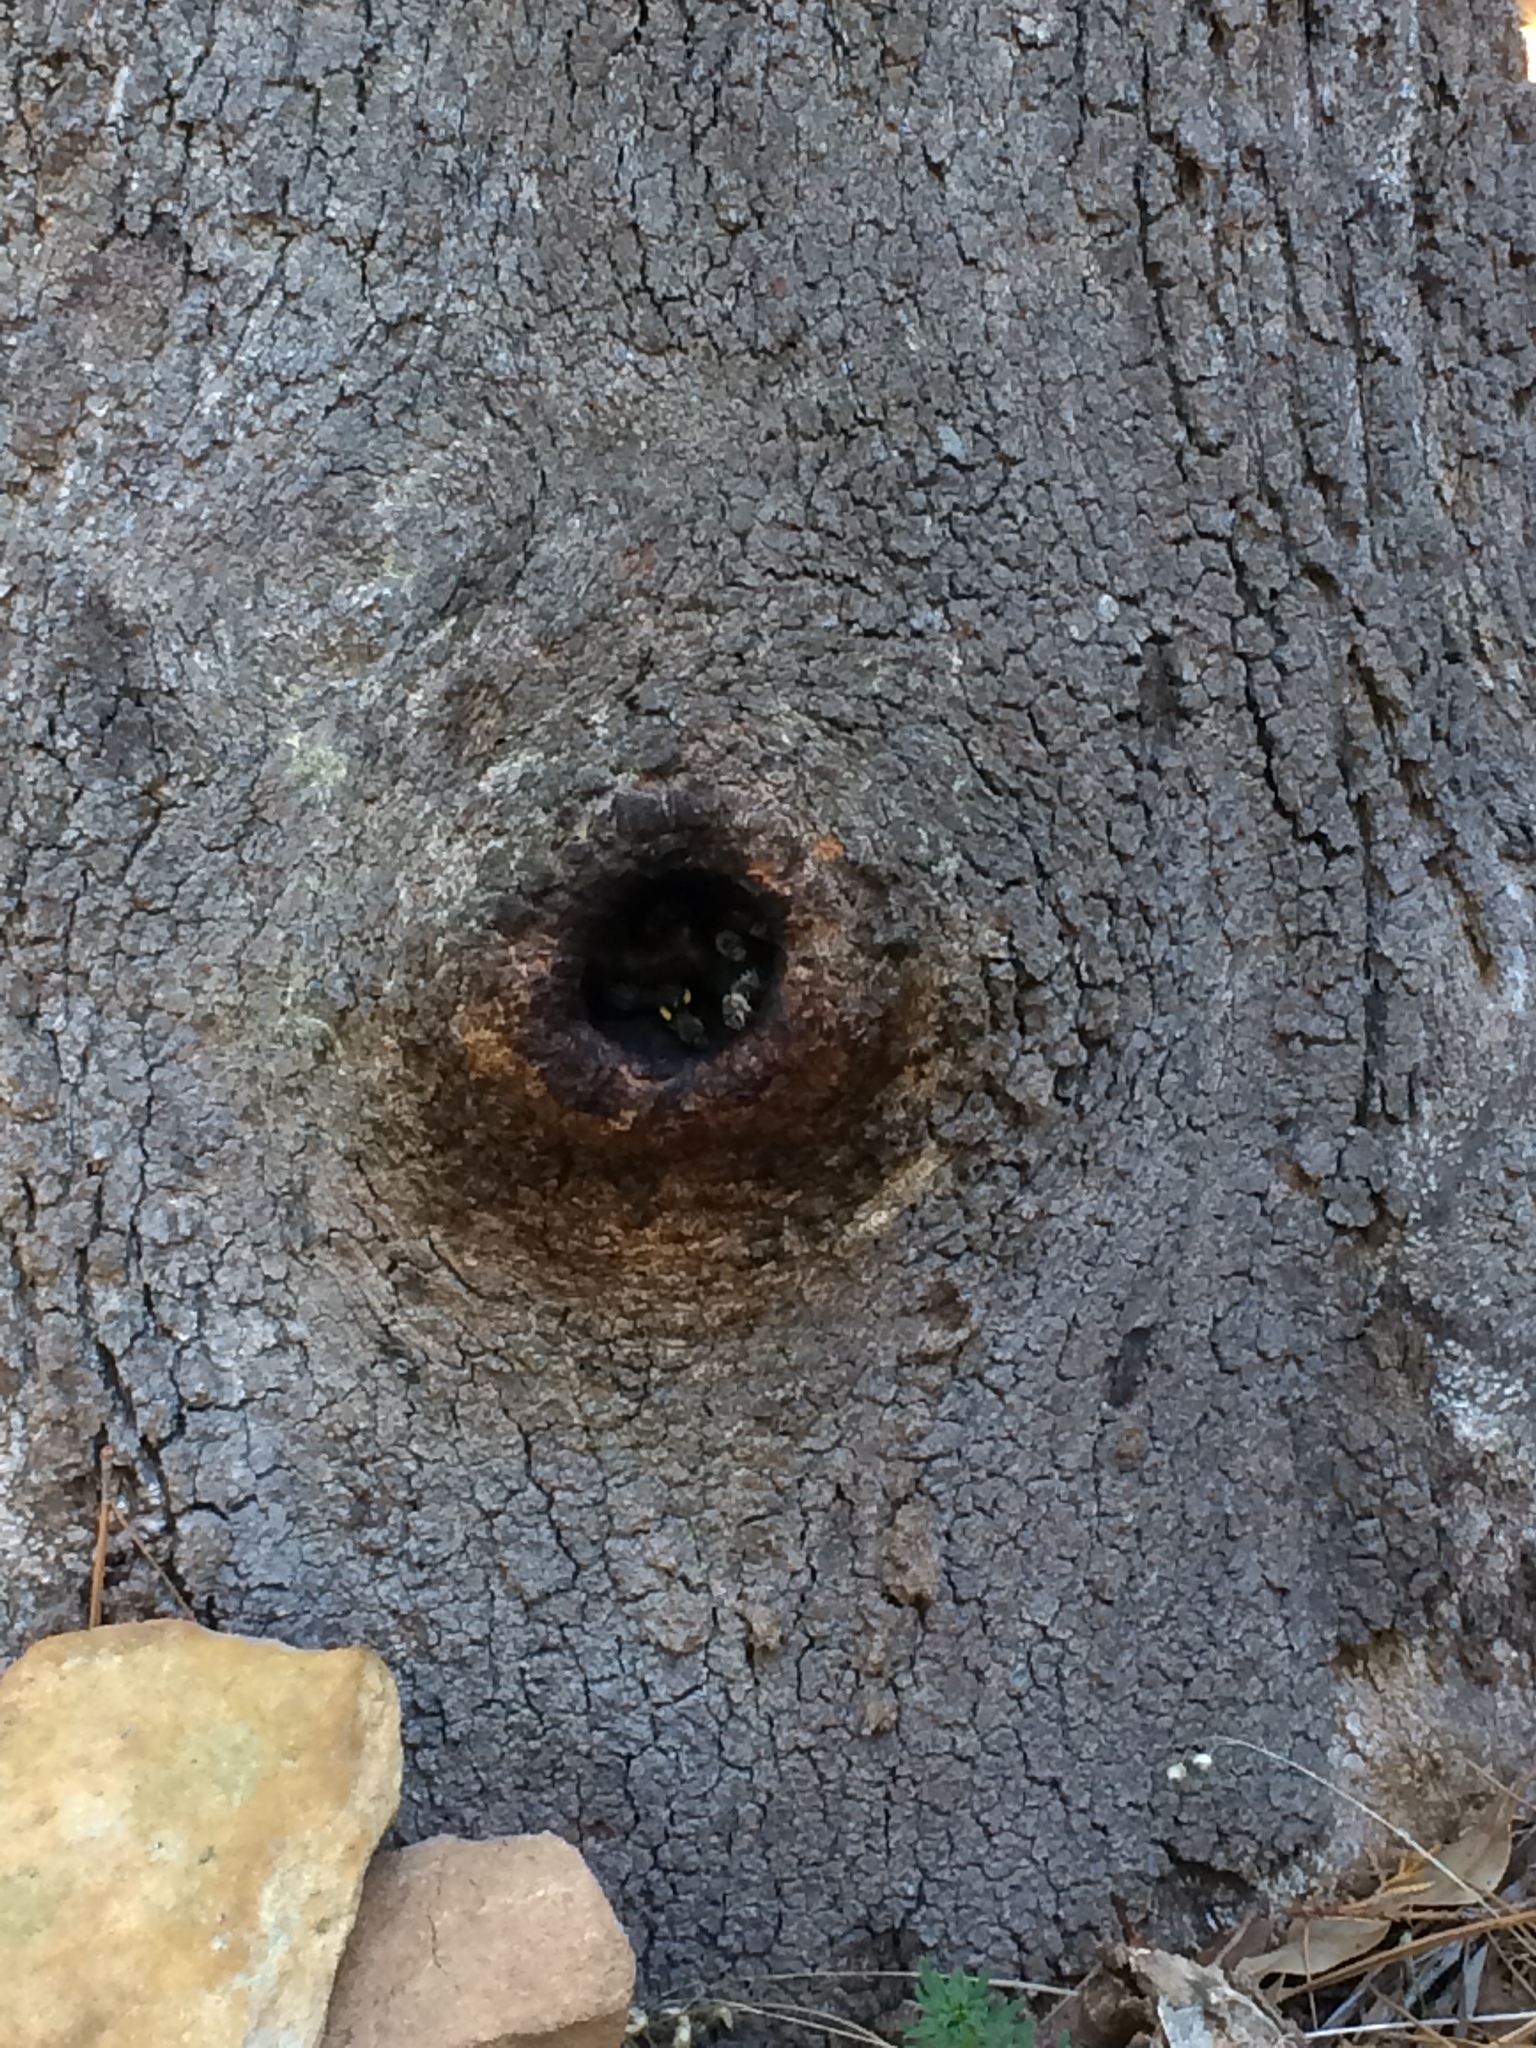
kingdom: Animalia
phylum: Arthropoda
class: Insecta
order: Hymenoptera
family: Apidae
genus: Apis
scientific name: Apis mellifera
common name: Honey bee
